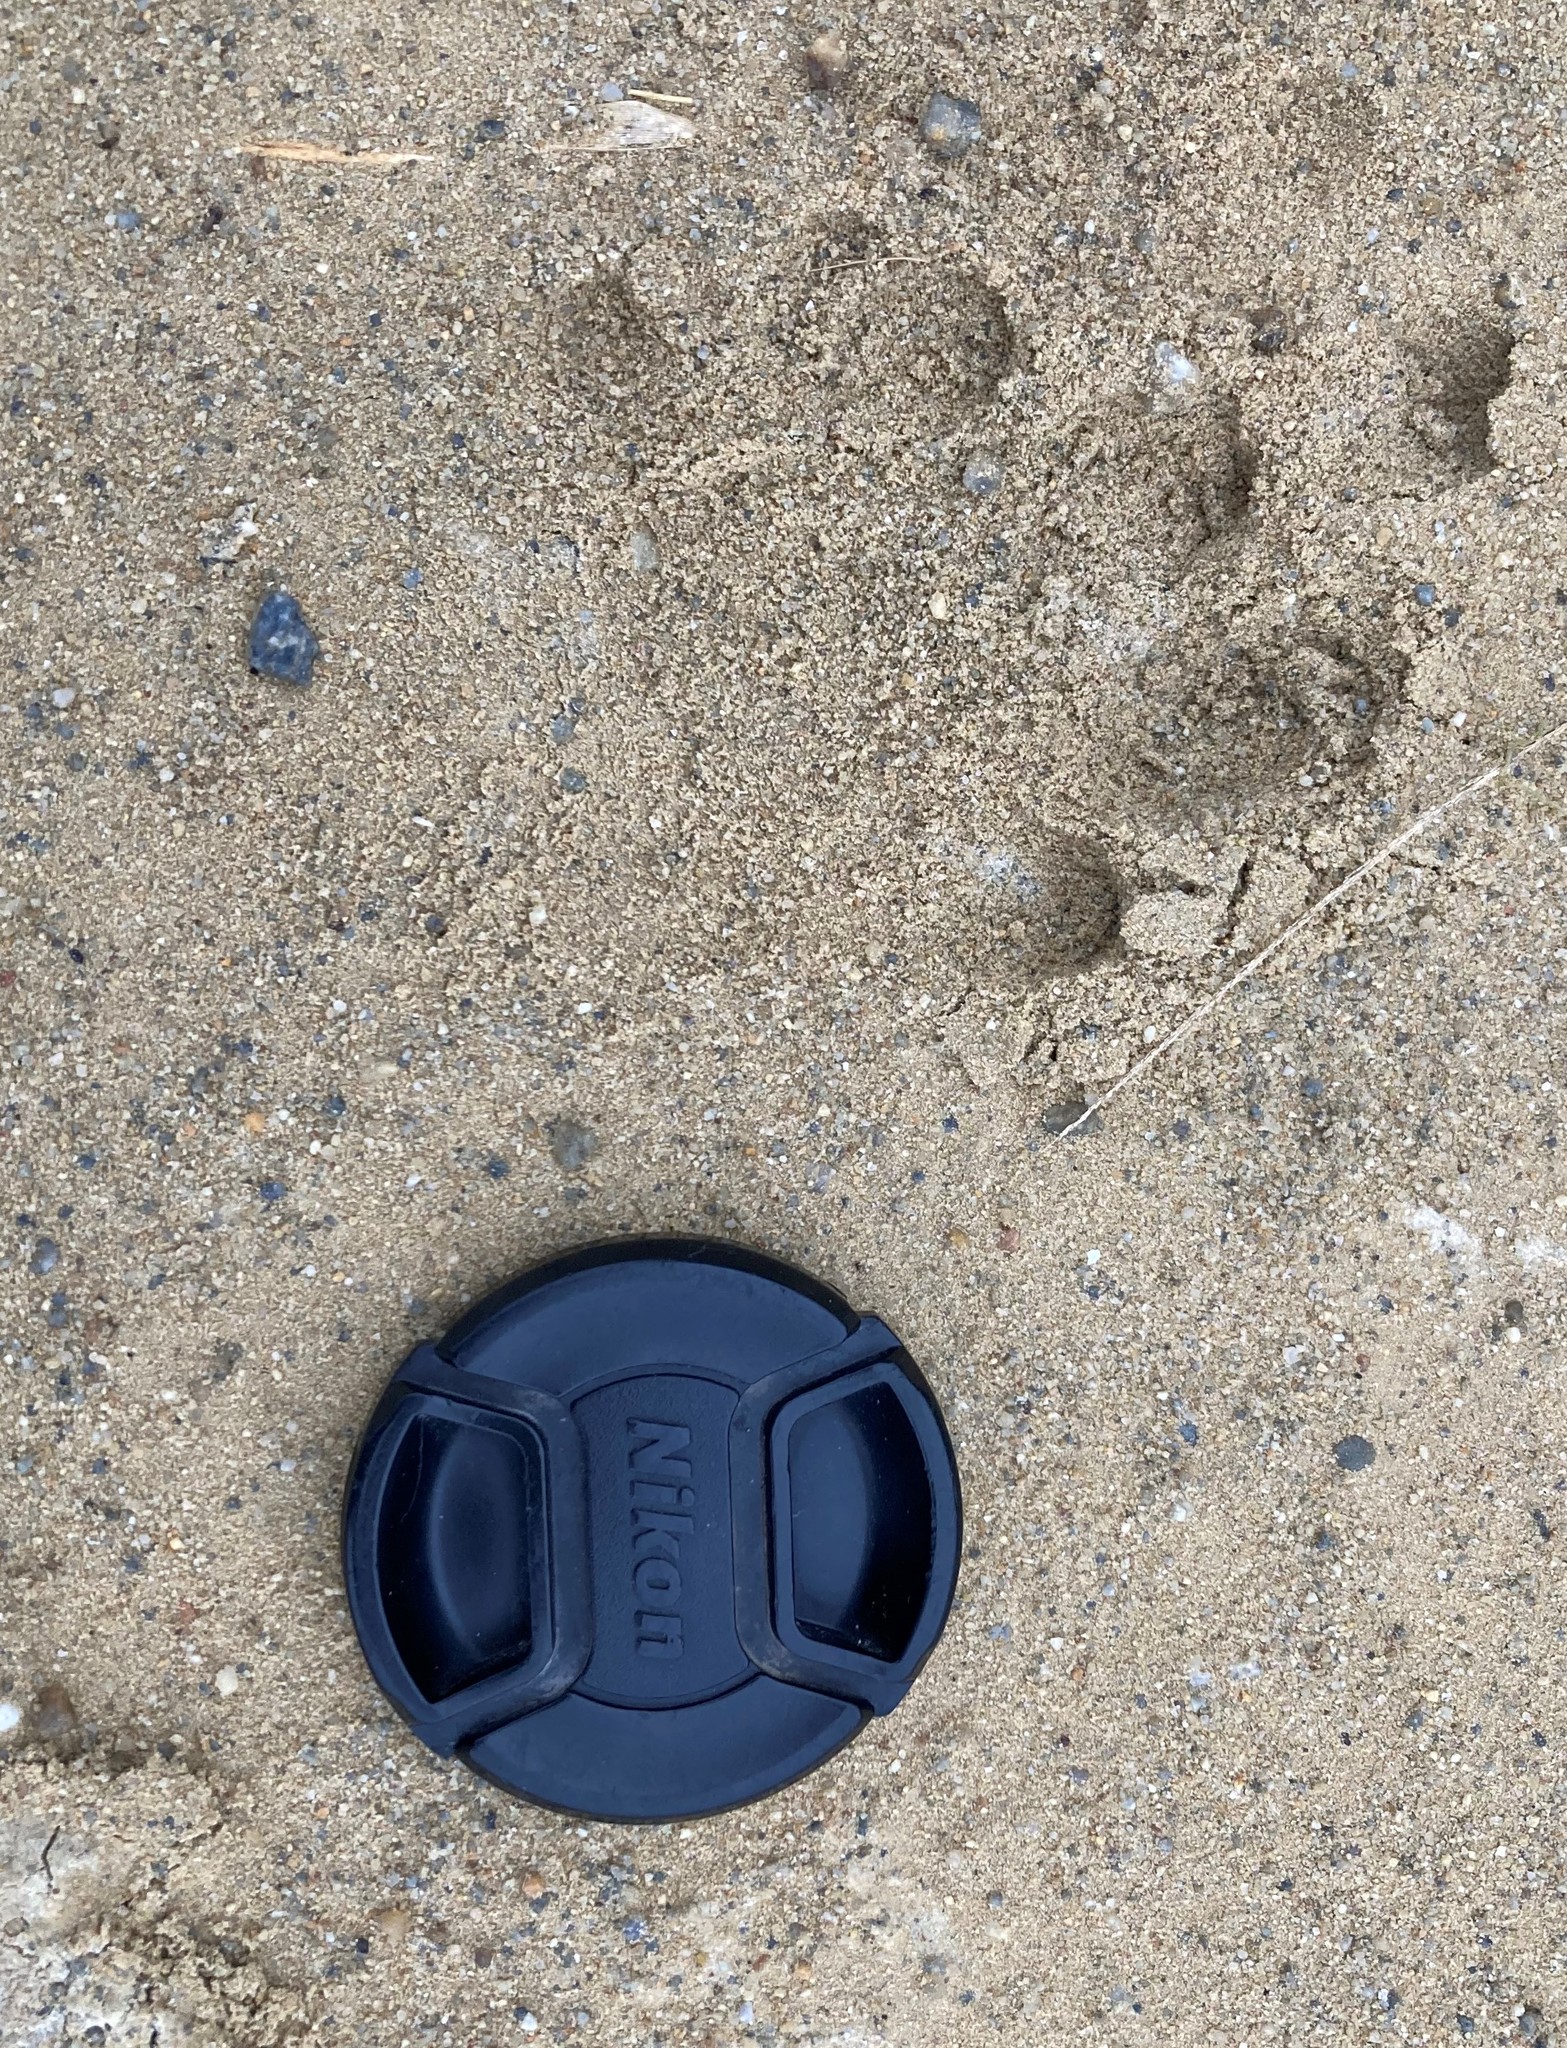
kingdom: Animalia
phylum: Chordata
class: Mammalia
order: Carnivora
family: Mustelidae
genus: Aonyx
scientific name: Aonyx capensis
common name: African clawless otter
